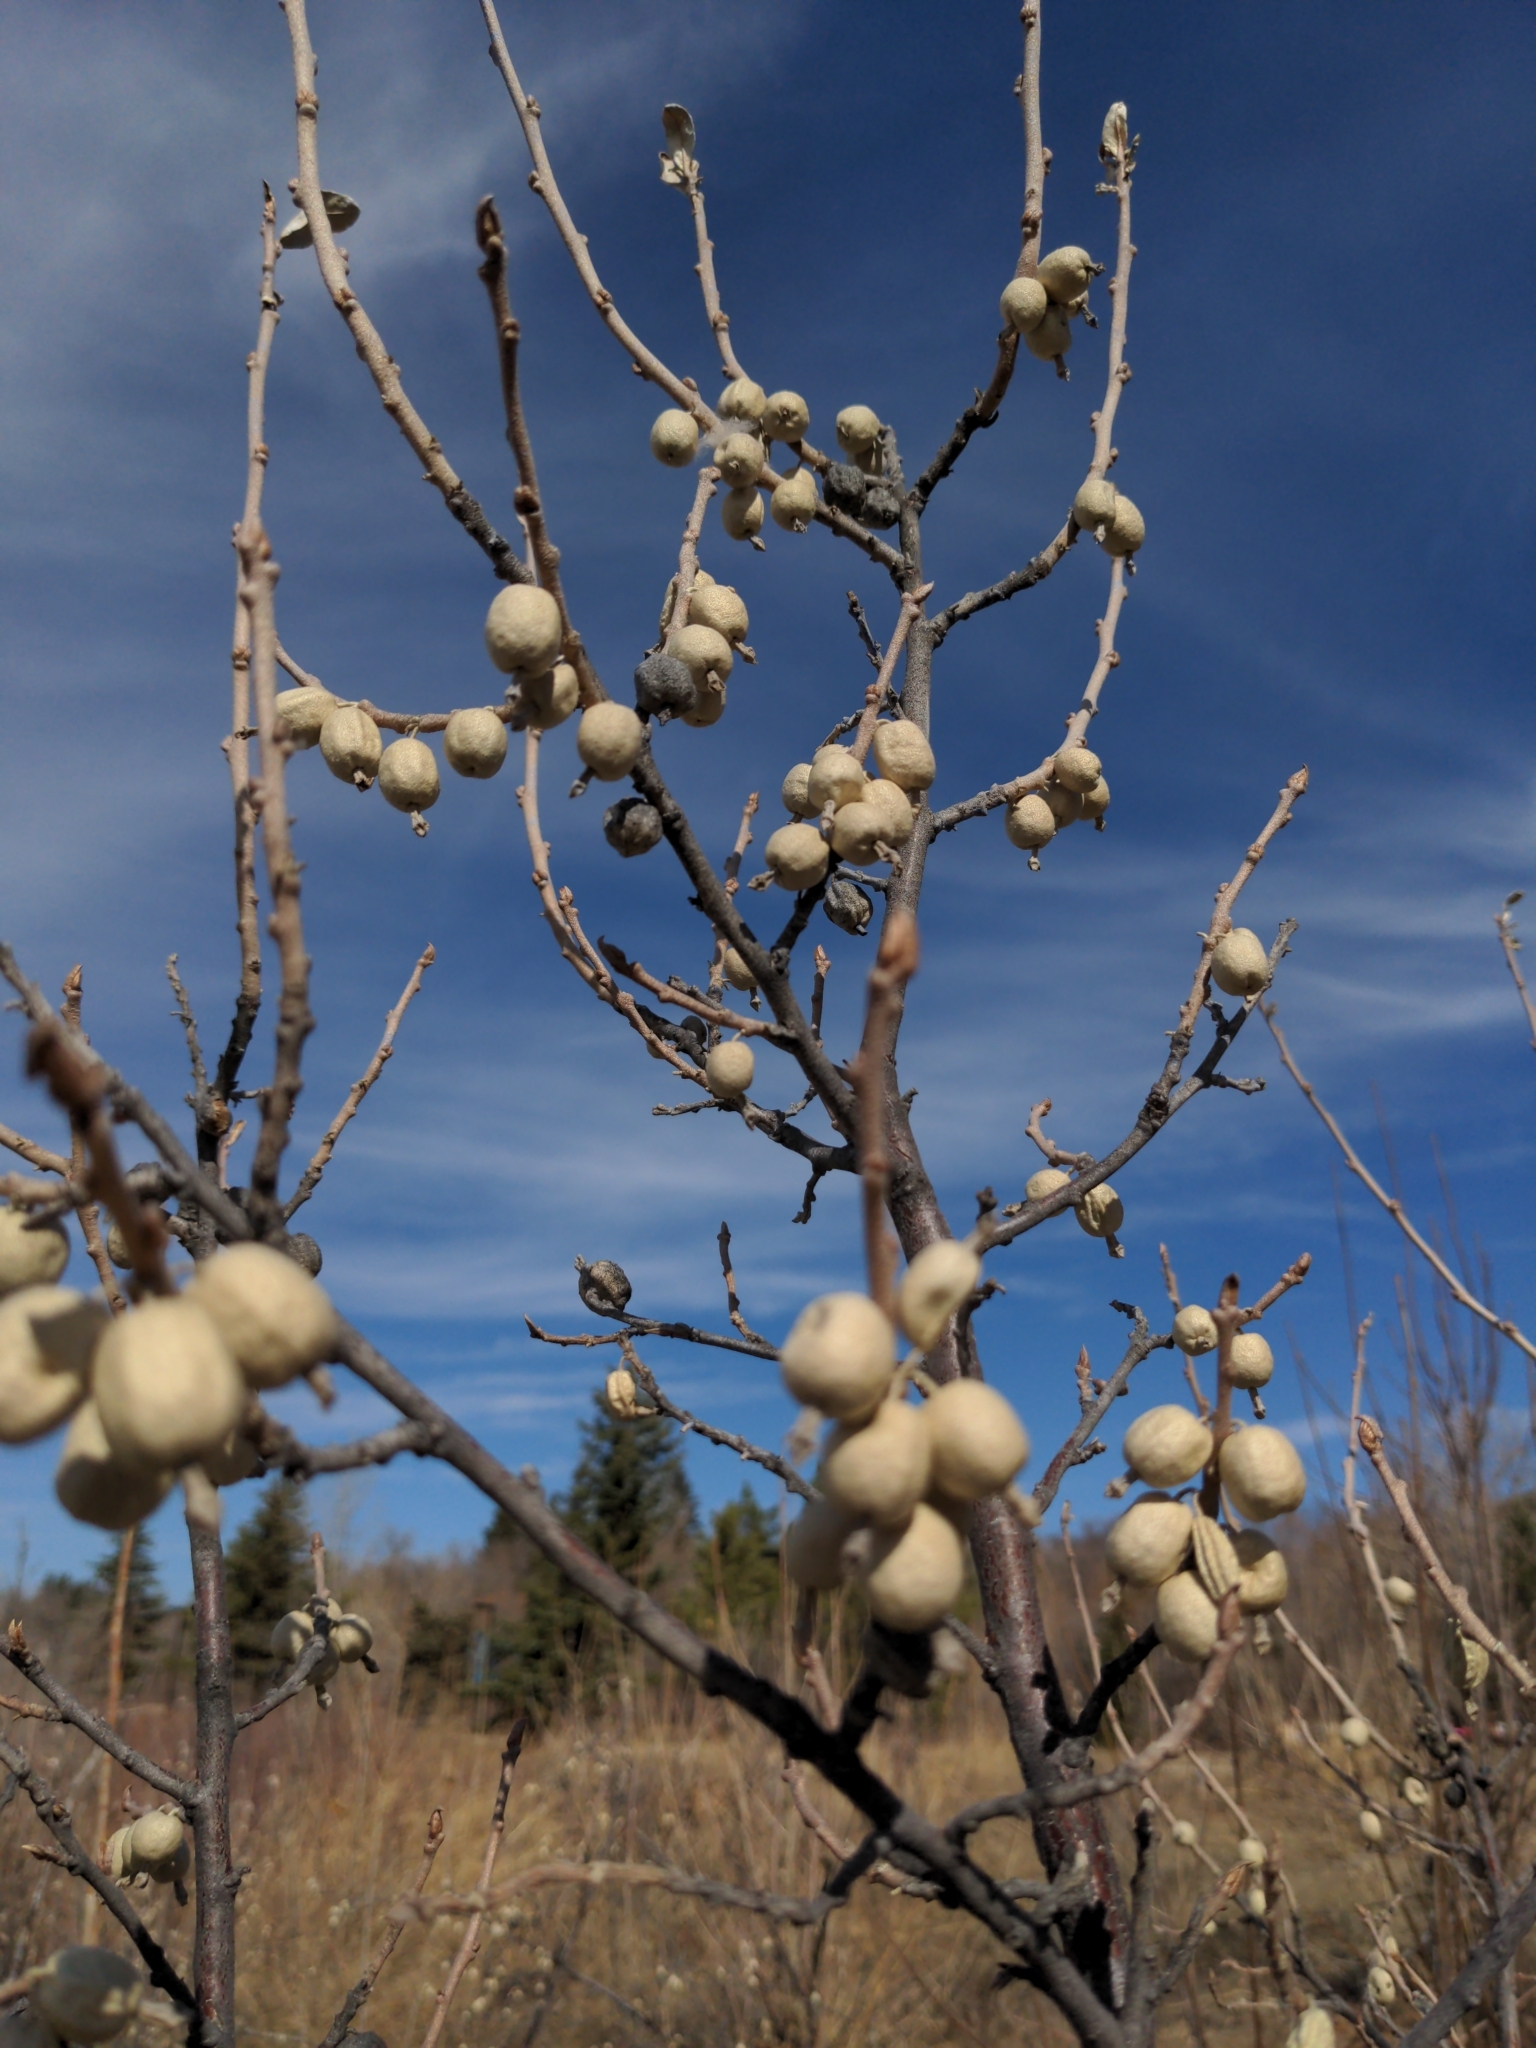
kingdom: Plantae
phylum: Tracheophyta
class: Magnoliopsida
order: Rosales
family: Elaeagnaceae
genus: Elaeagnus
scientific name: Elaeagnus commutata
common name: Silverberry
